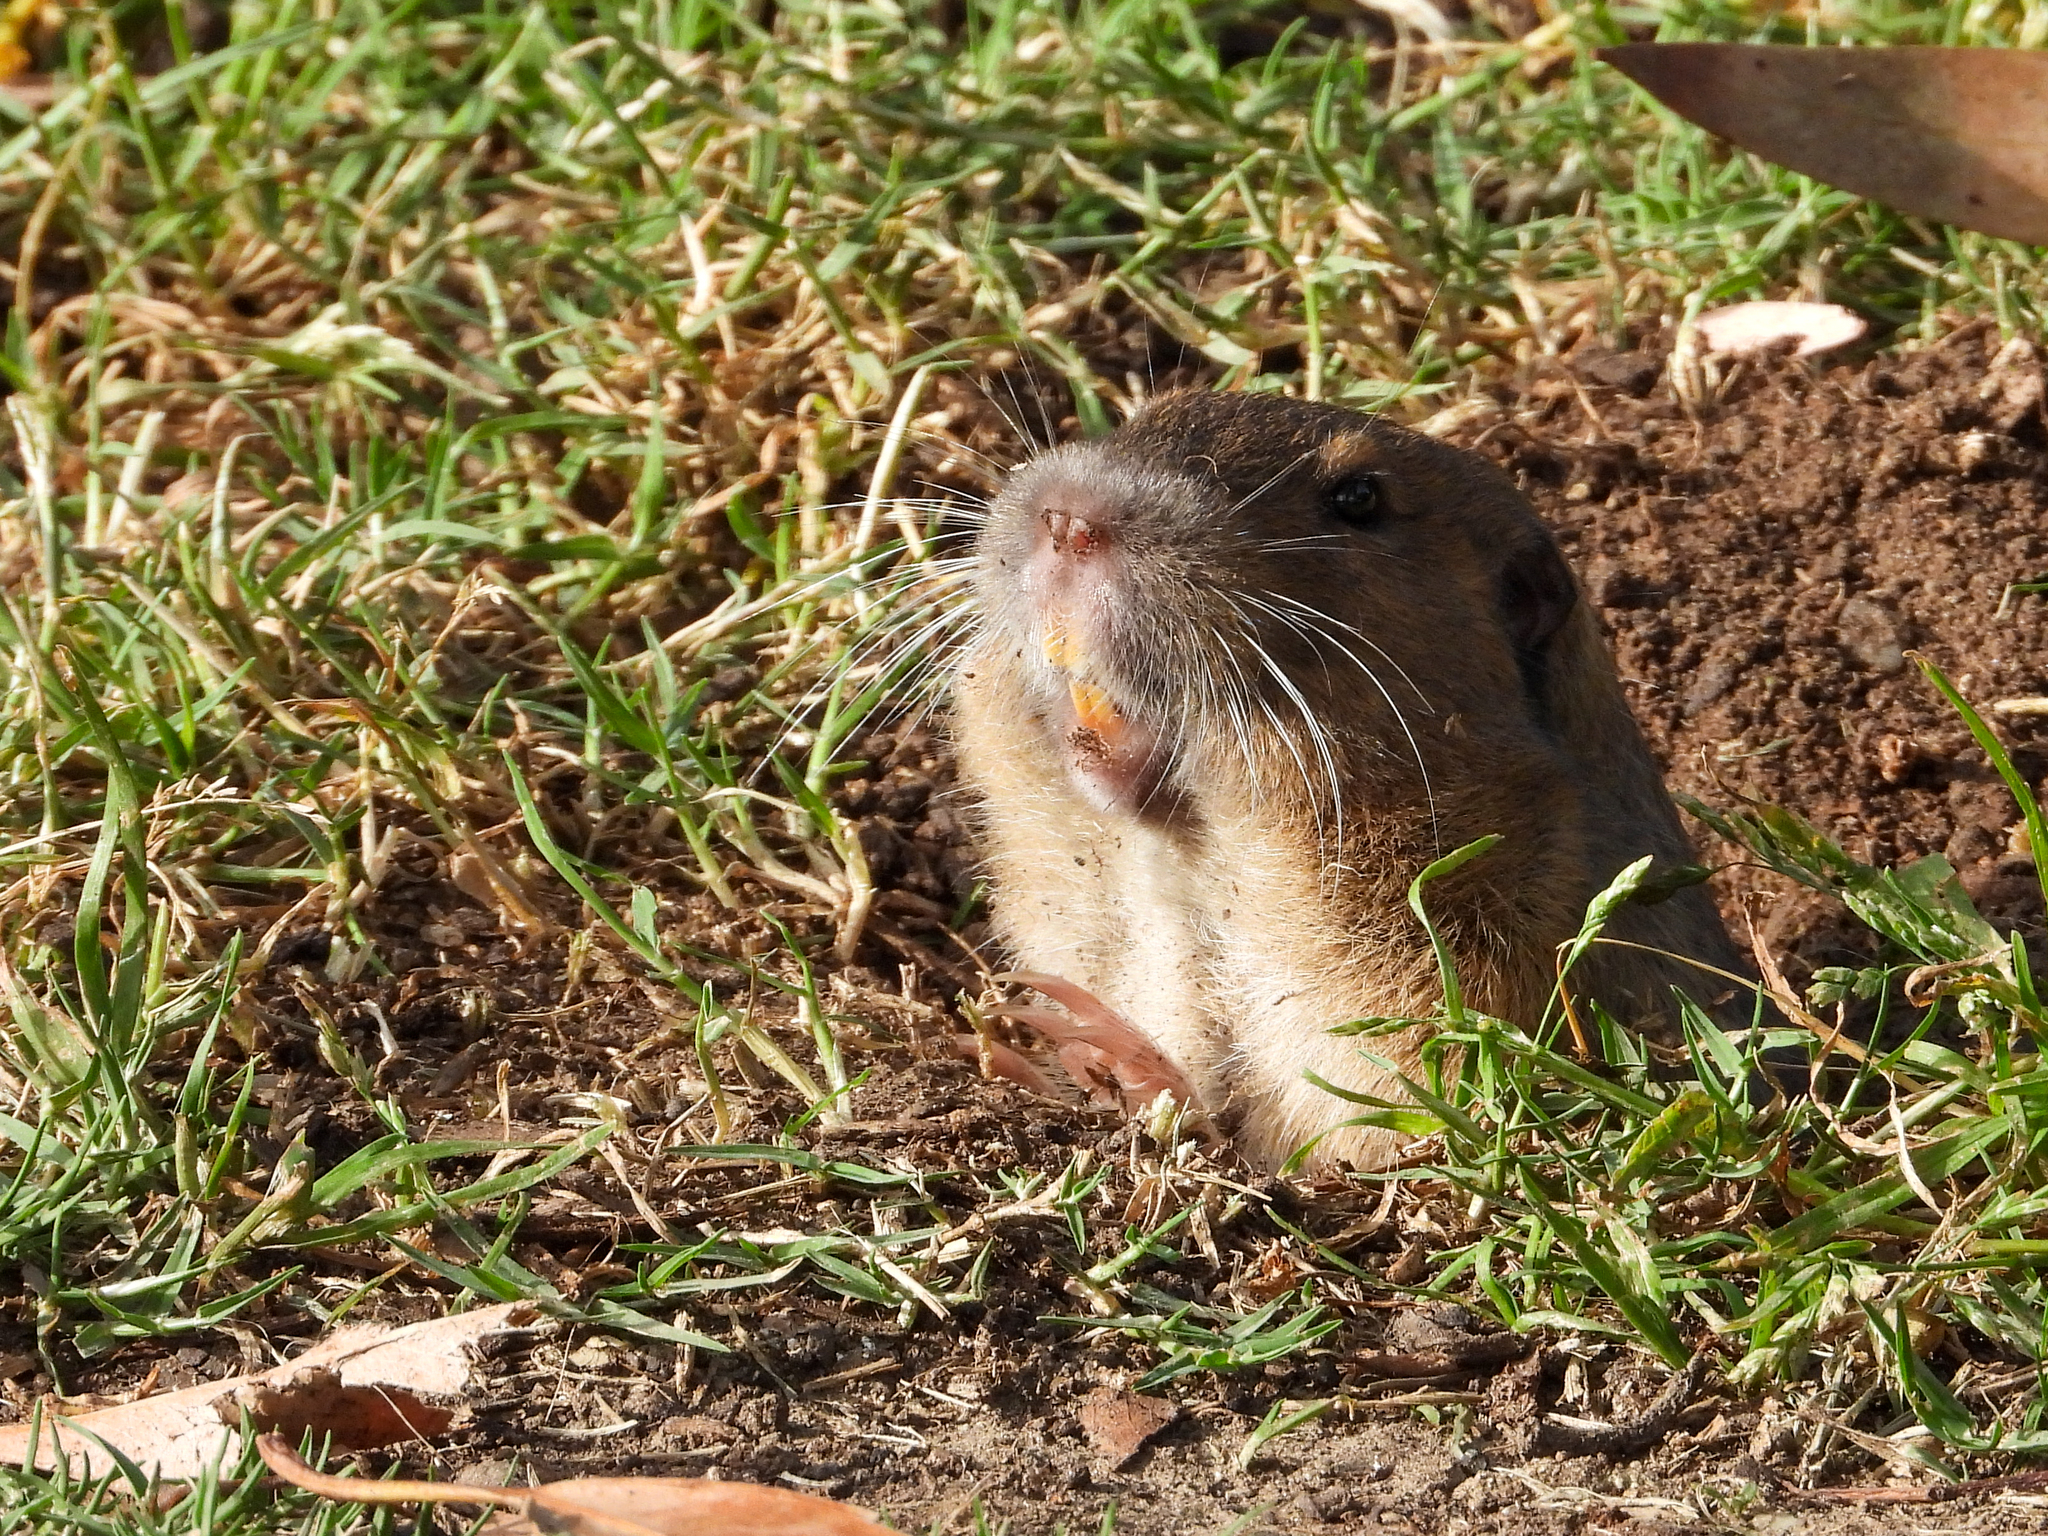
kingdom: Animalia
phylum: Chordata
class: Mammalia
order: Rodentia
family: Geomyidae
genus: Thomomys
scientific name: Thomomys bottae
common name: Botta's pocket gopher
